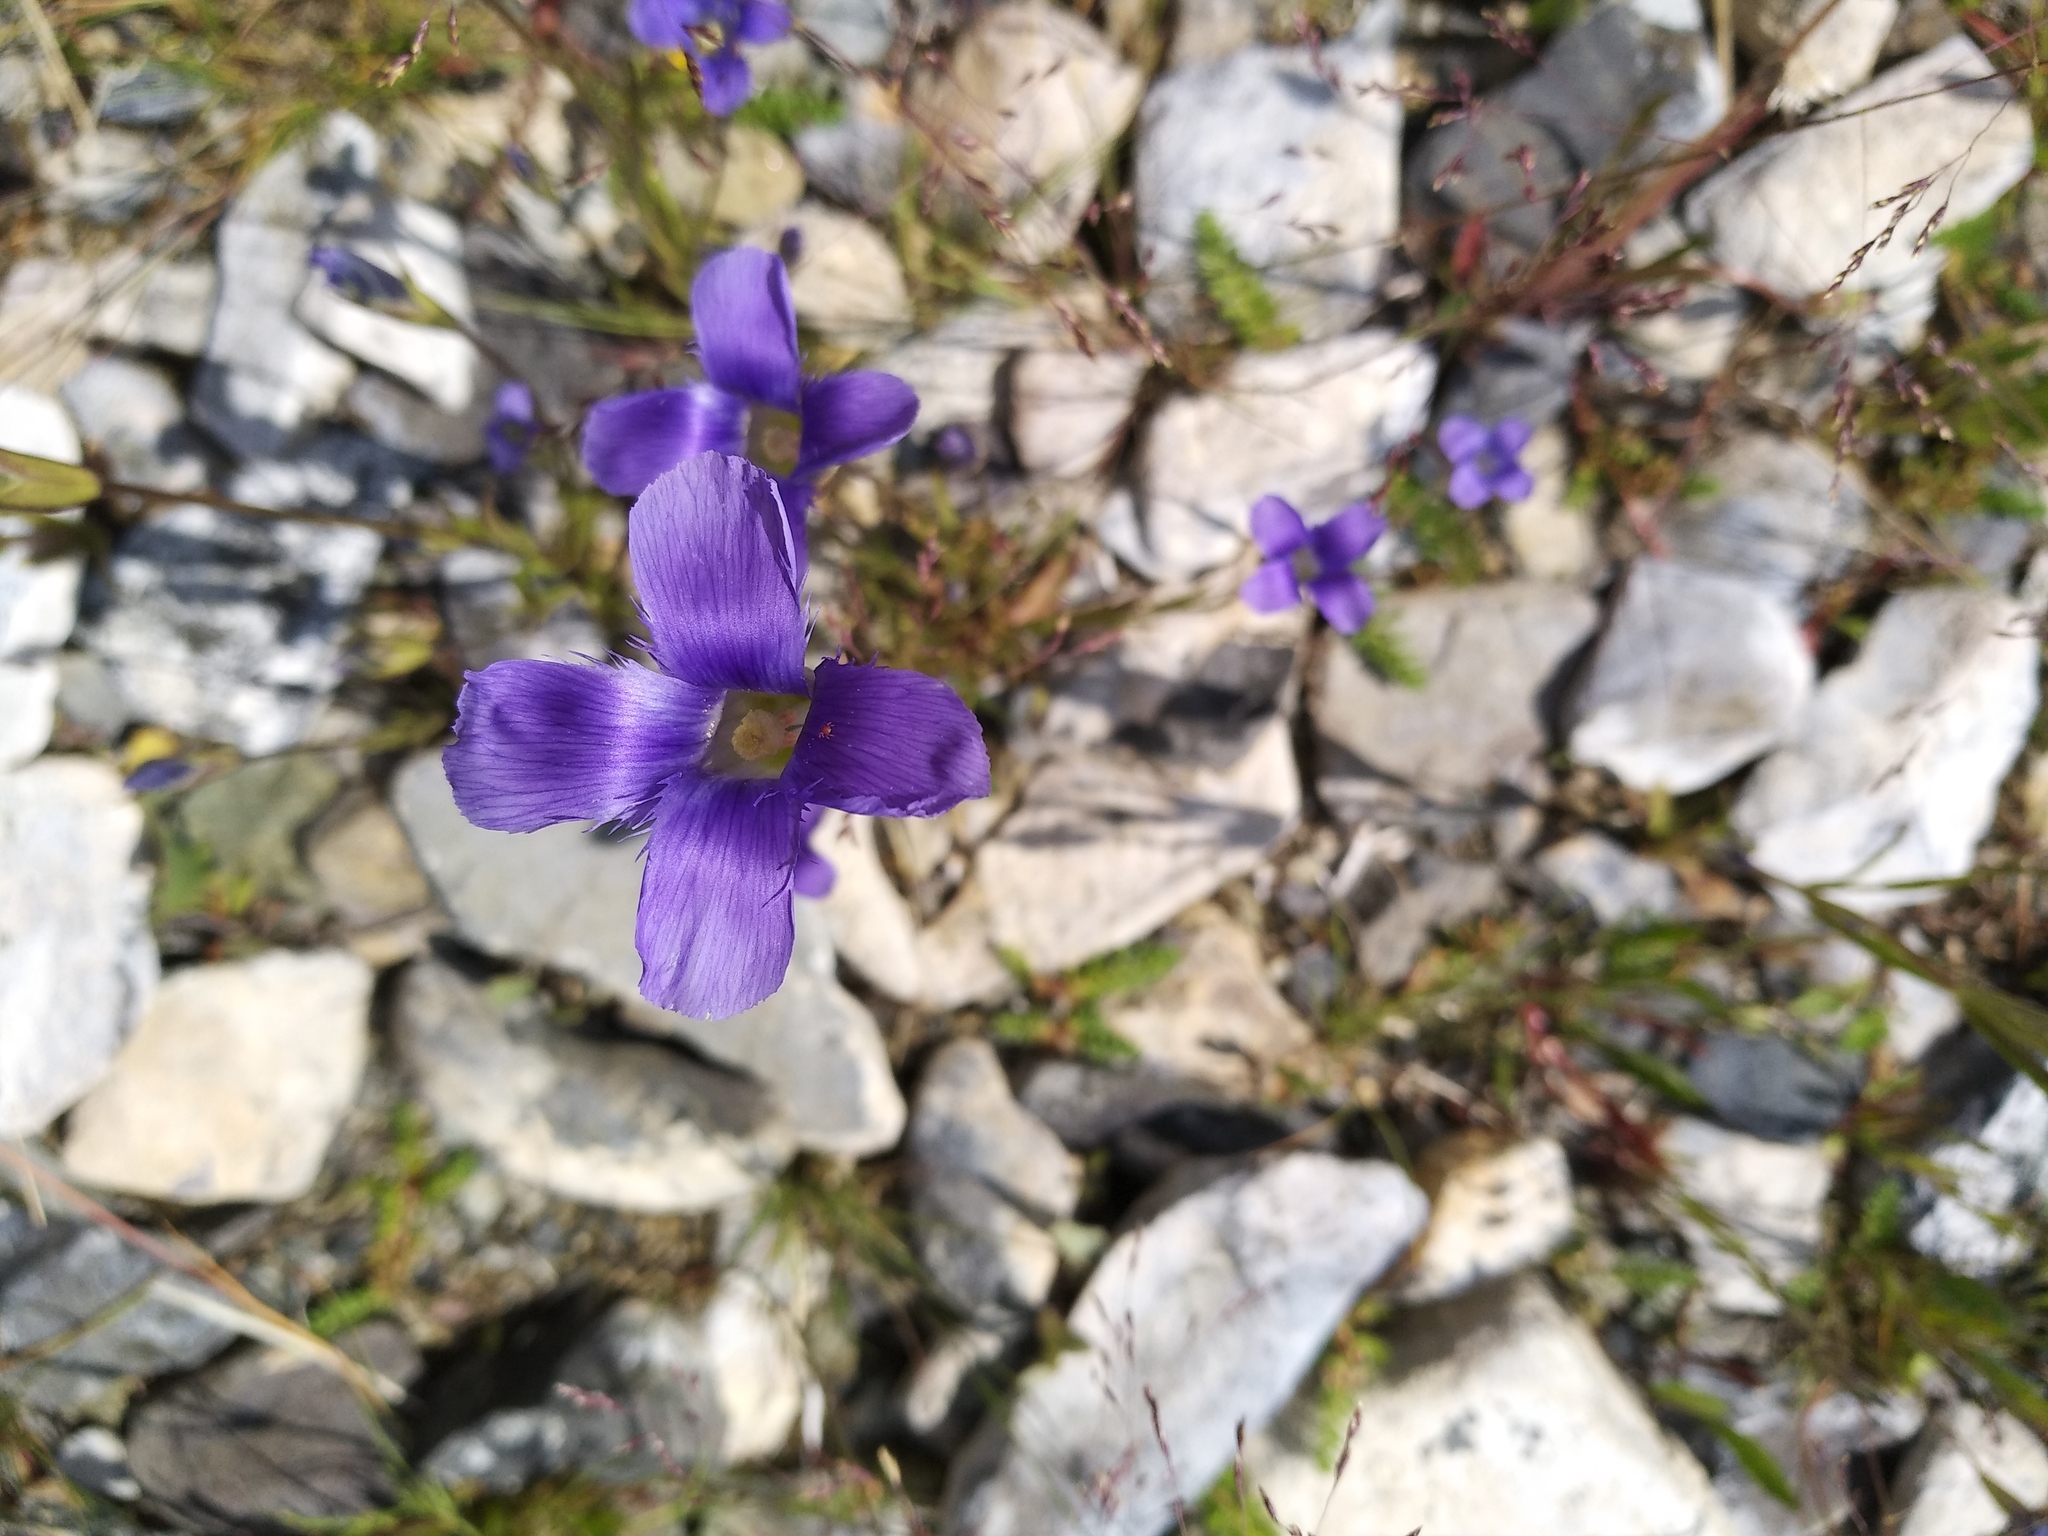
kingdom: Plantae
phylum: Tracheophyta
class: Magnoliopsida
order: Gentianales
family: Gentianaceae
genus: Gentianopsis
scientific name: Gentianopsis barbata
